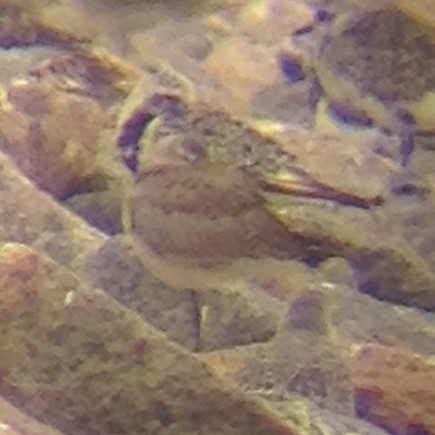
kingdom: Animalia
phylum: Chordata
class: Aves
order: Charadriiformes
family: Scolopacidae
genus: Limosa
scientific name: Limosa haemastica
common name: Hudsonian godwit
